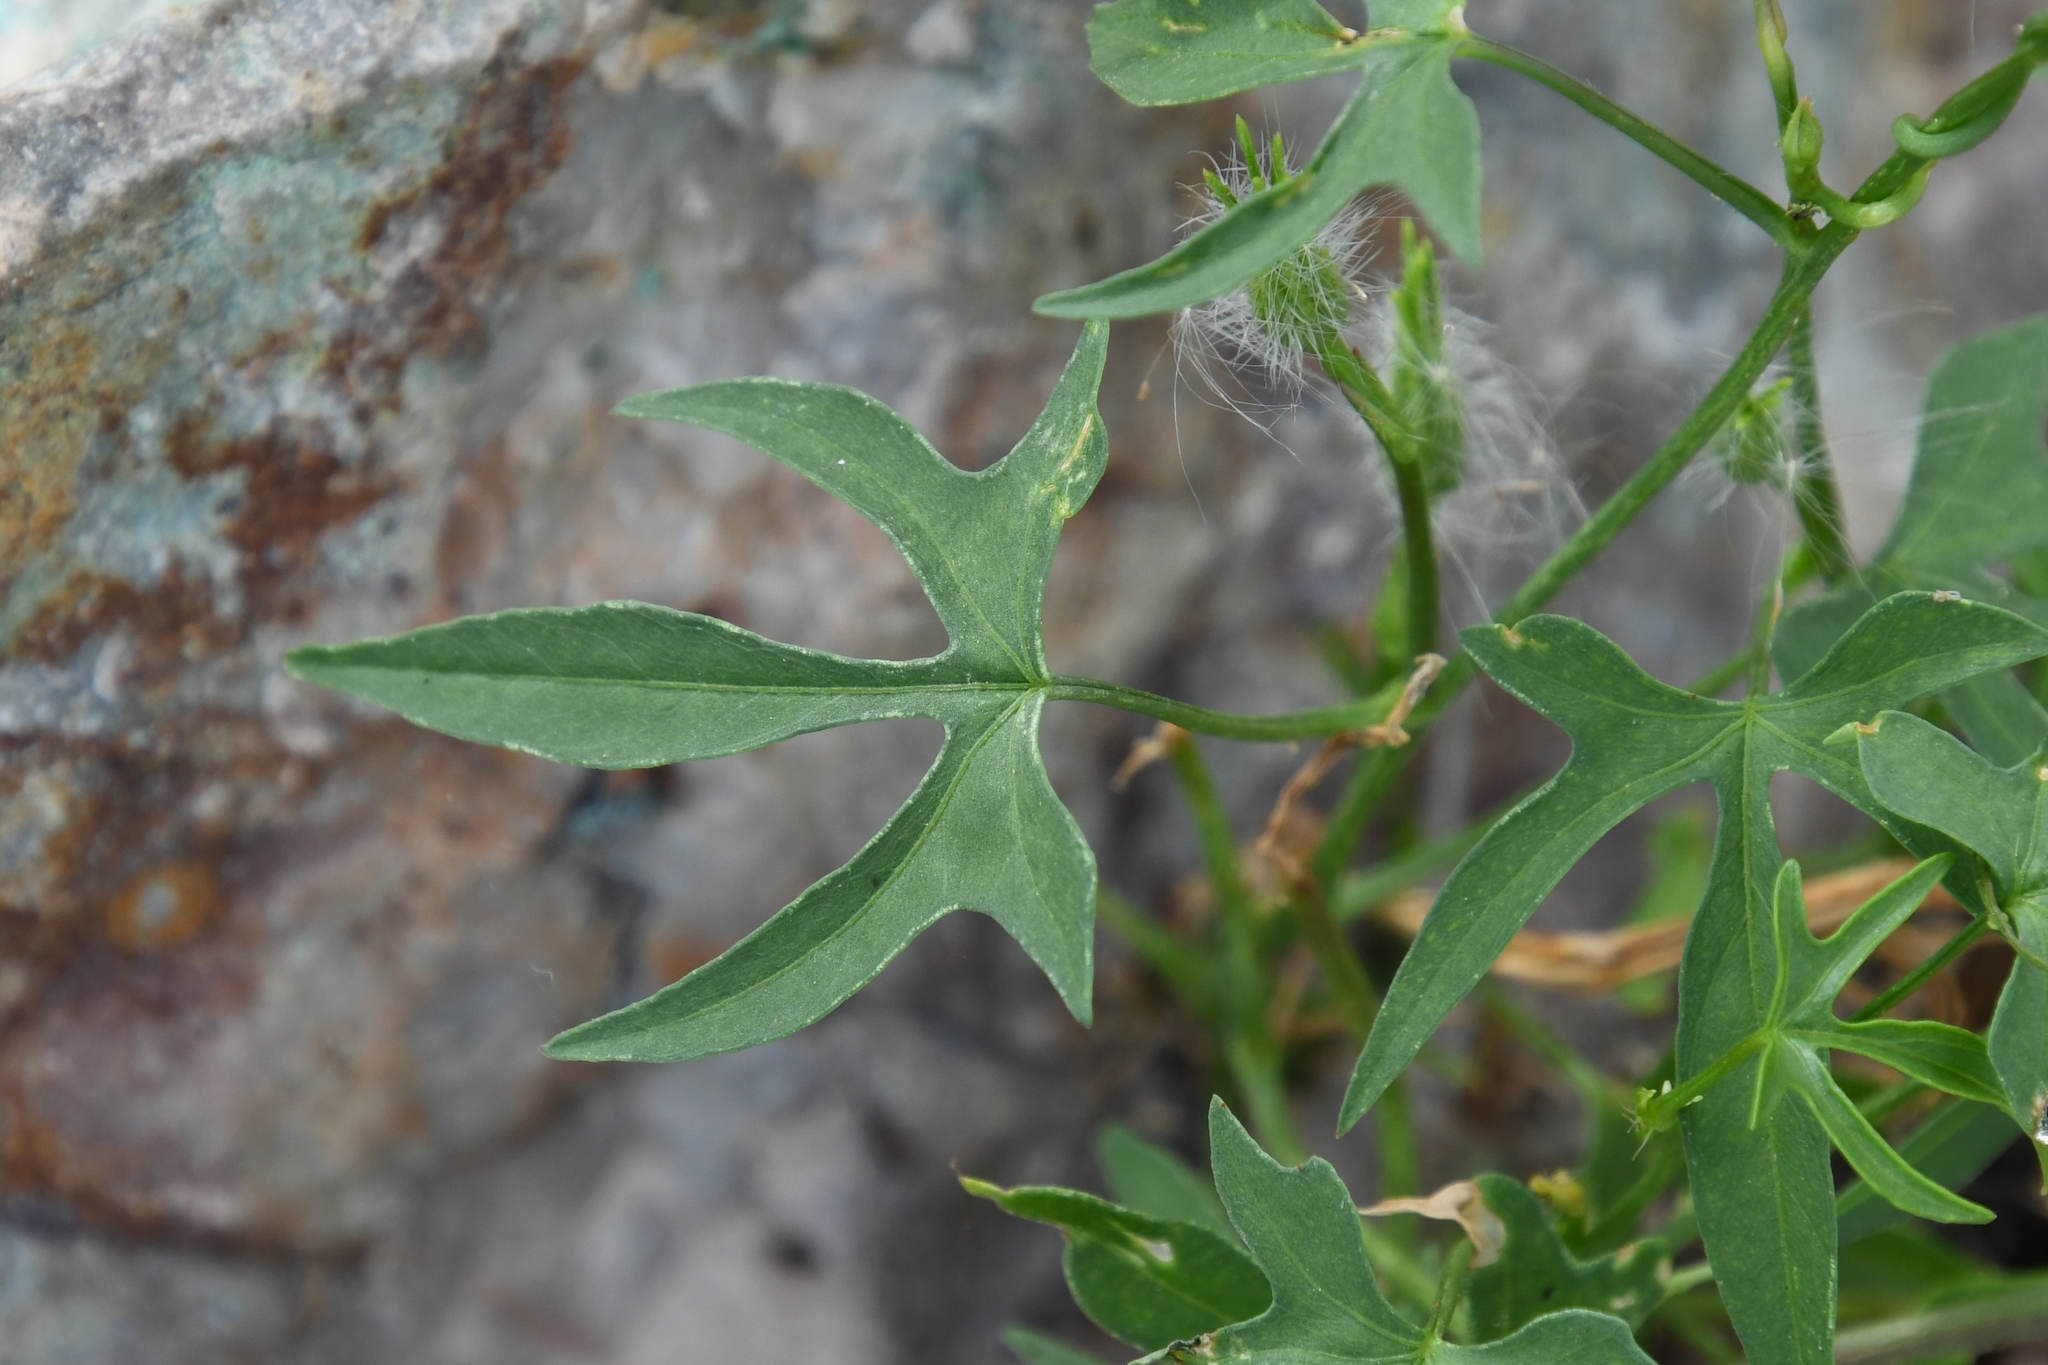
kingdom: Plantae
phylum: Tracheophyta
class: Magnoliopsida
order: Solanales
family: Convolvulaceae
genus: Ipomoea
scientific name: Ipomoea barbatisepala
